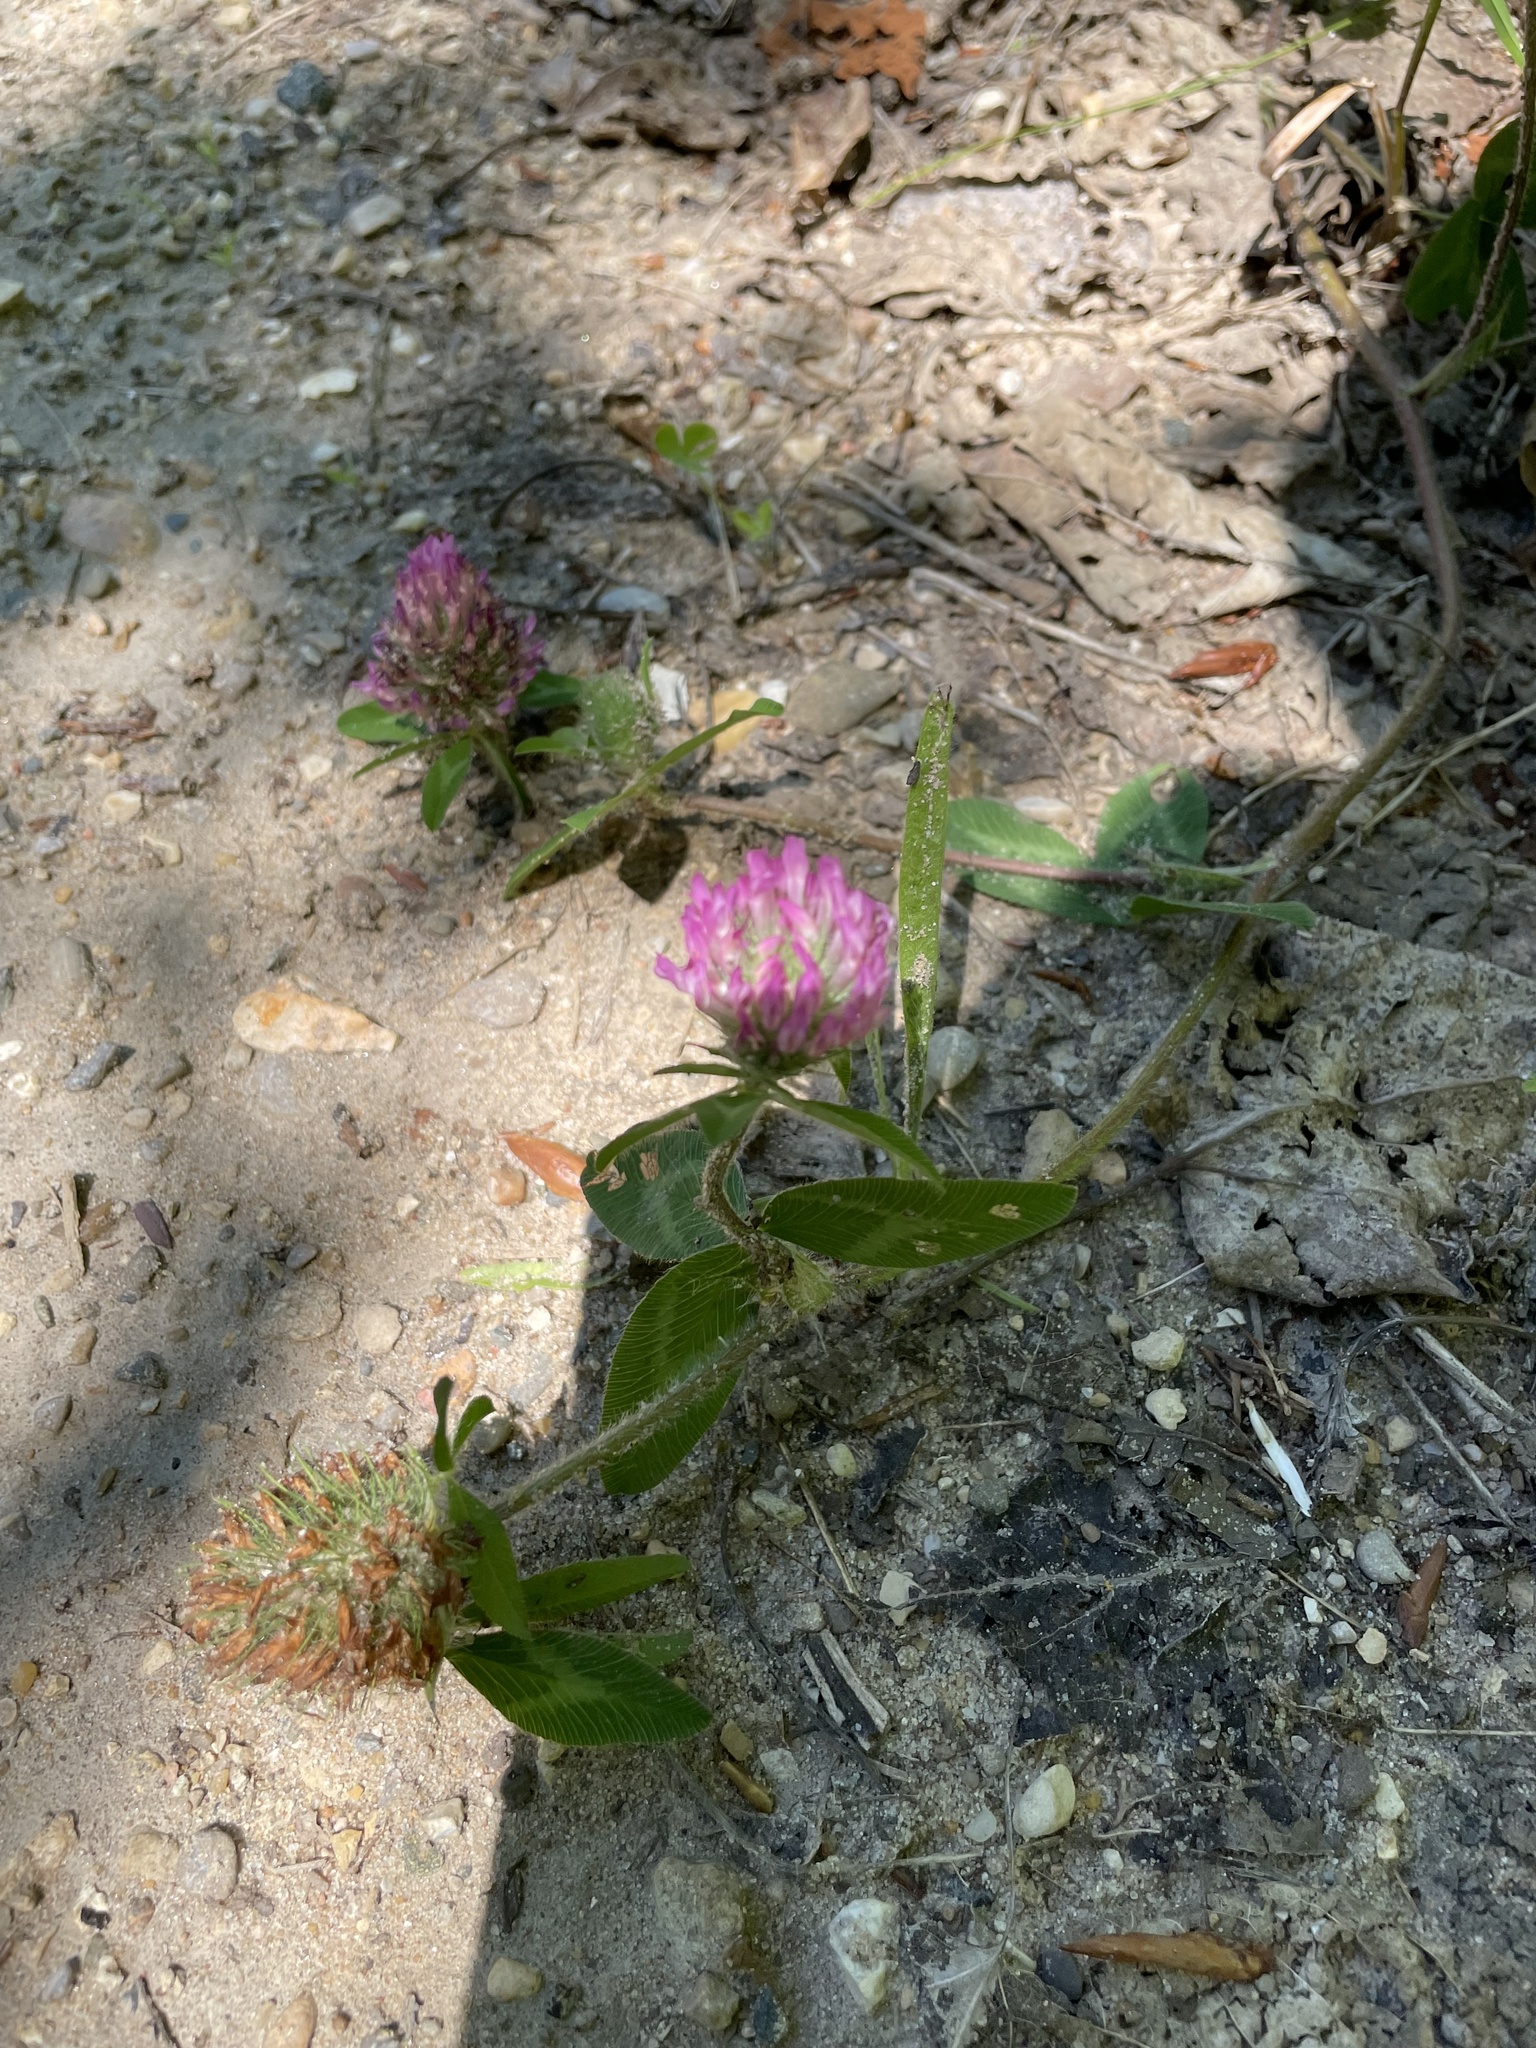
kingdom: Plantae
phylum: Tracheophyta
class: Magnoliopsida
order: Fabales
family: Fabaceae
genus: Trifolium
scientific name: Trifolium pratense
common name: Red clover
